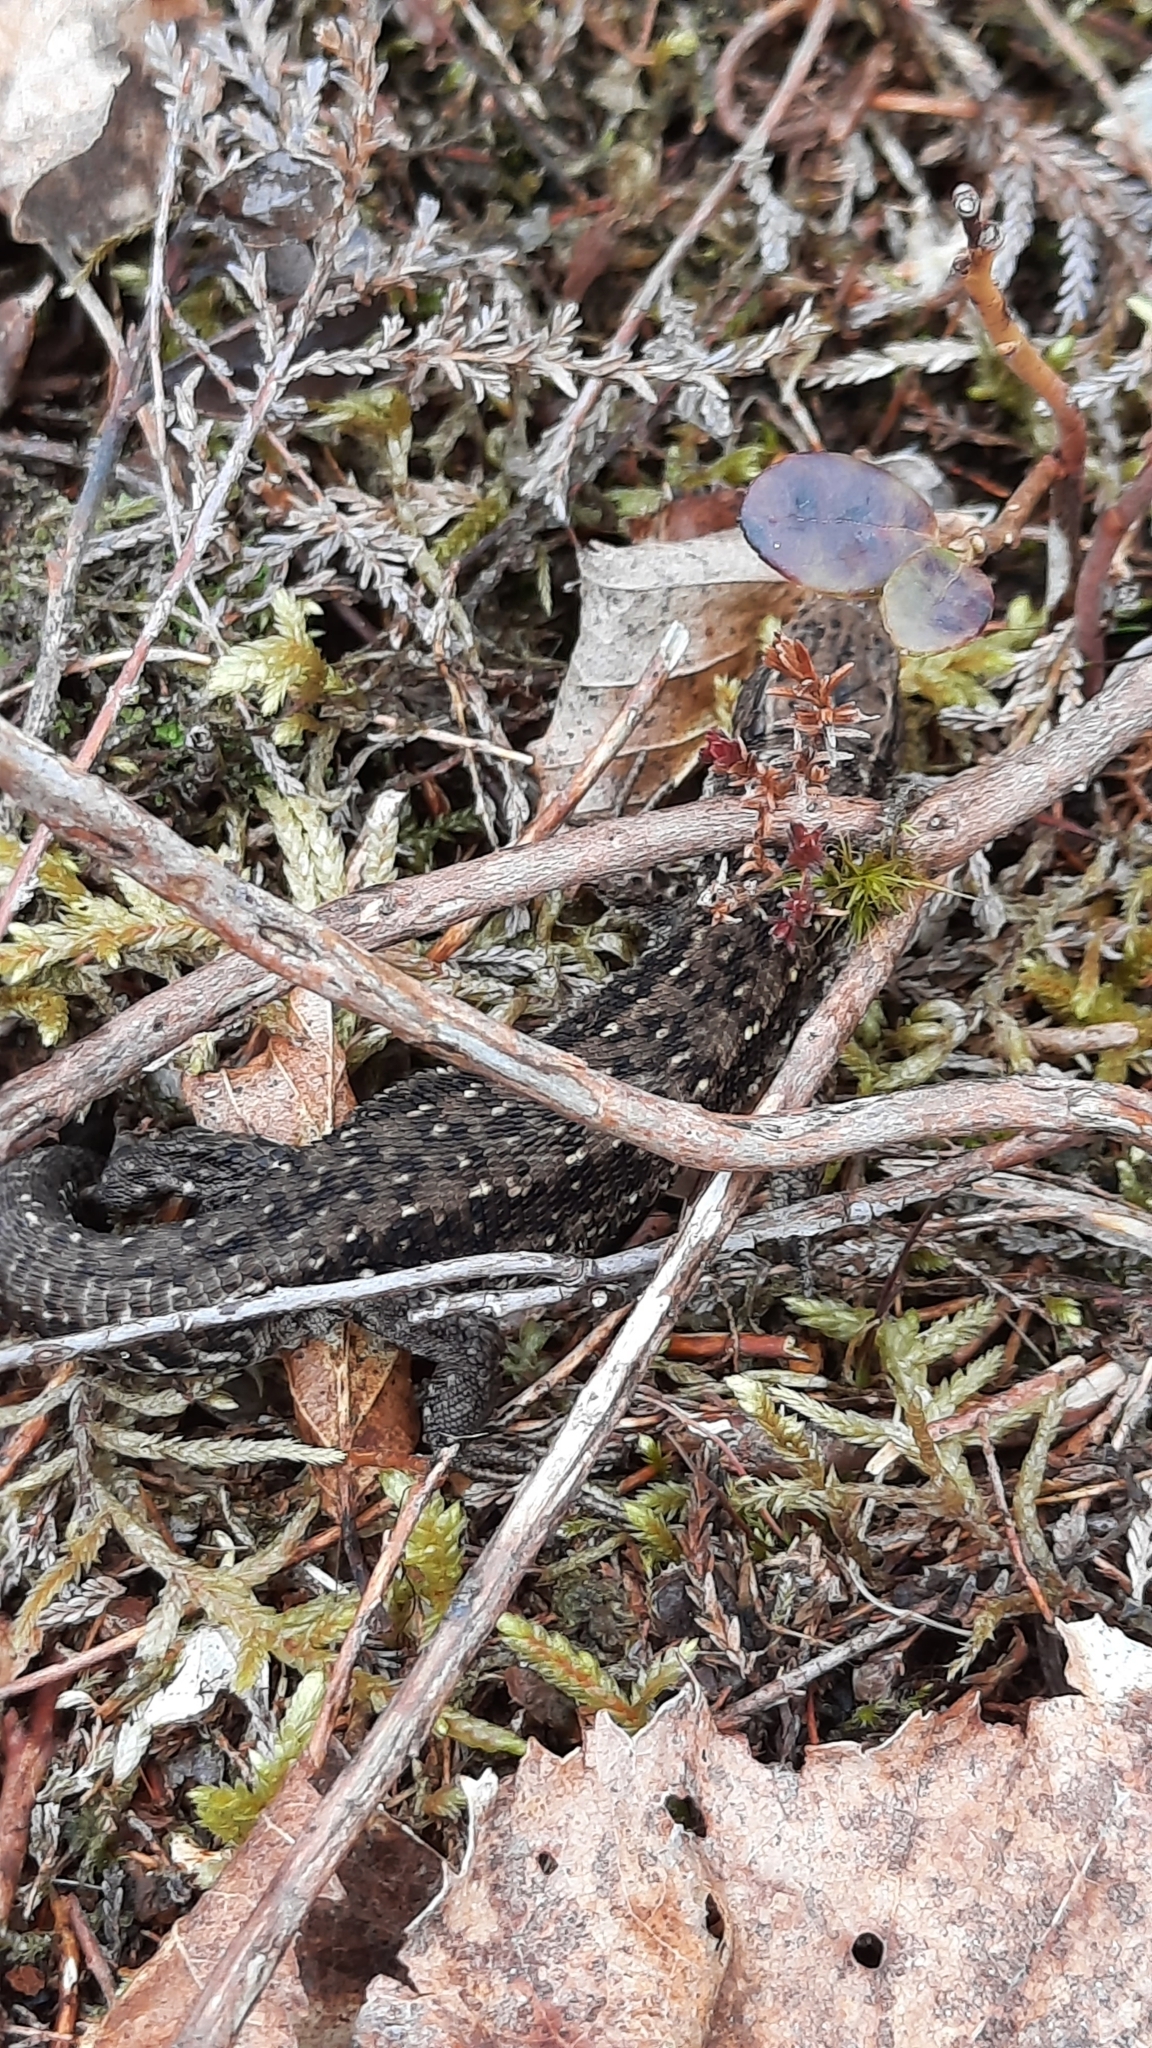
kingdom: Animalia
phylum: Chordata
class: Squamata
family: Lacertidae
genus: Zootoca
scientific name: Zootoca vivipara
